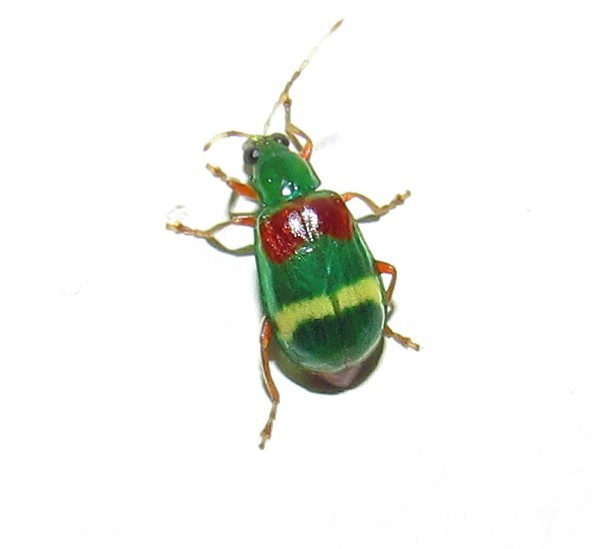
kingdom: Animalia
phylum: Arthropoda
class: Insecta
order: Coleoptera
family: Chrysomelidae
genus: Charidotella
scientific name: Charidotella amoenula
